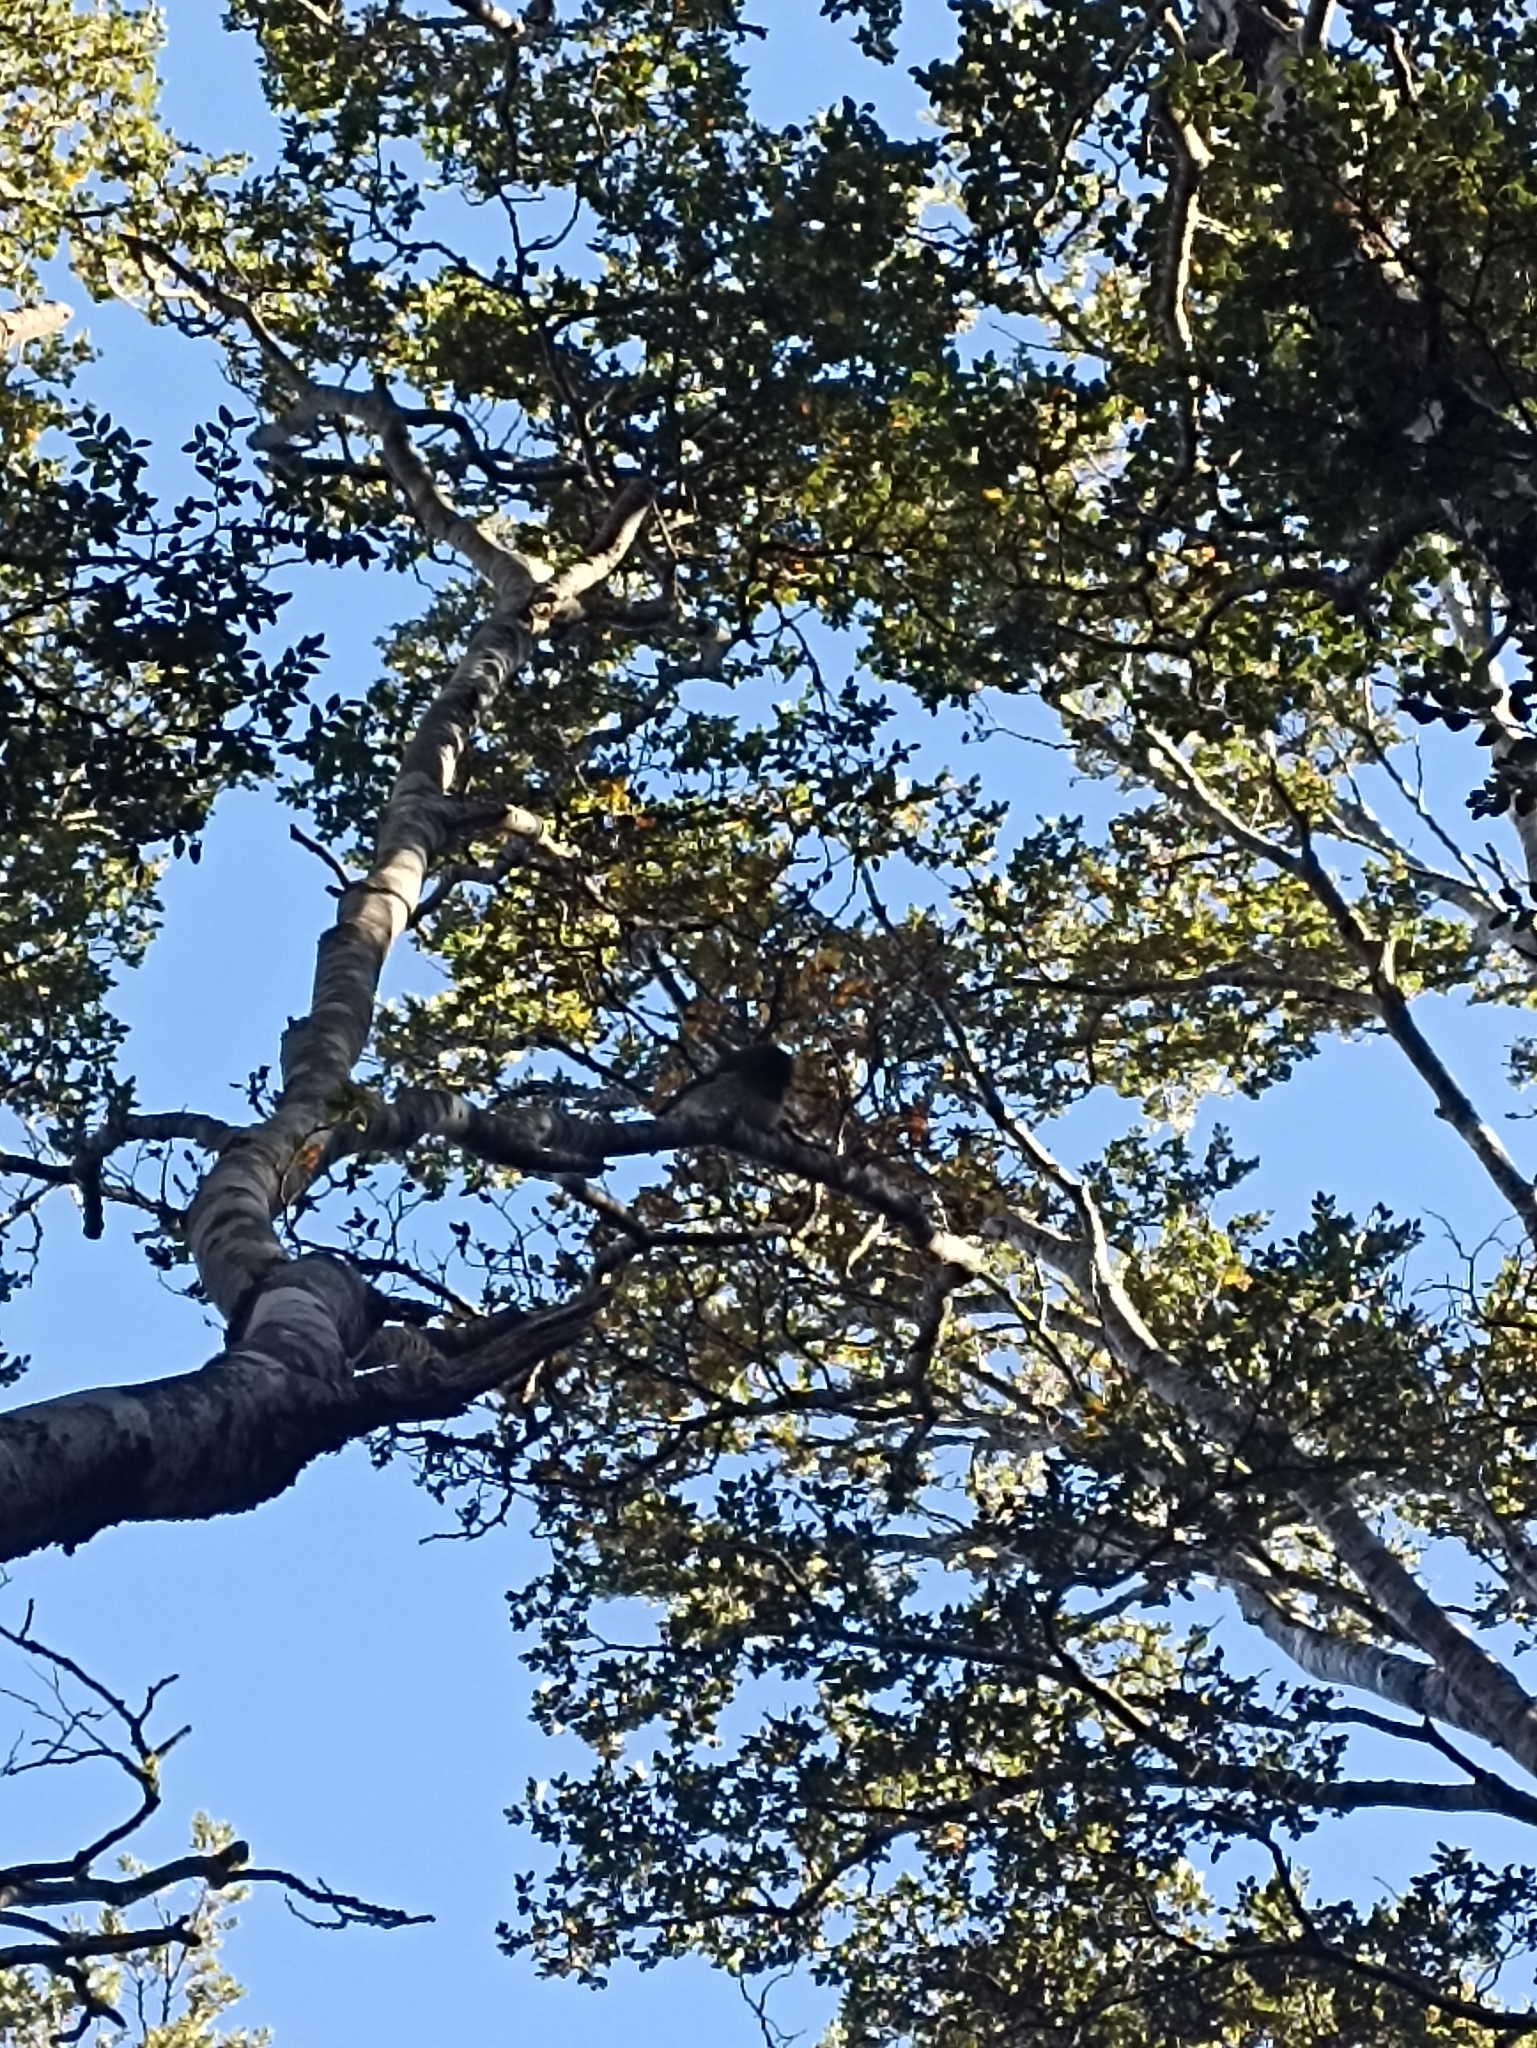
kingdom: Animalia
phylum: Chordata
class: Aves
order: Passeriformes
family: Petroicidae
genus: Petroica
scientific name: Petroica macrocephala
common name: Tomtit
